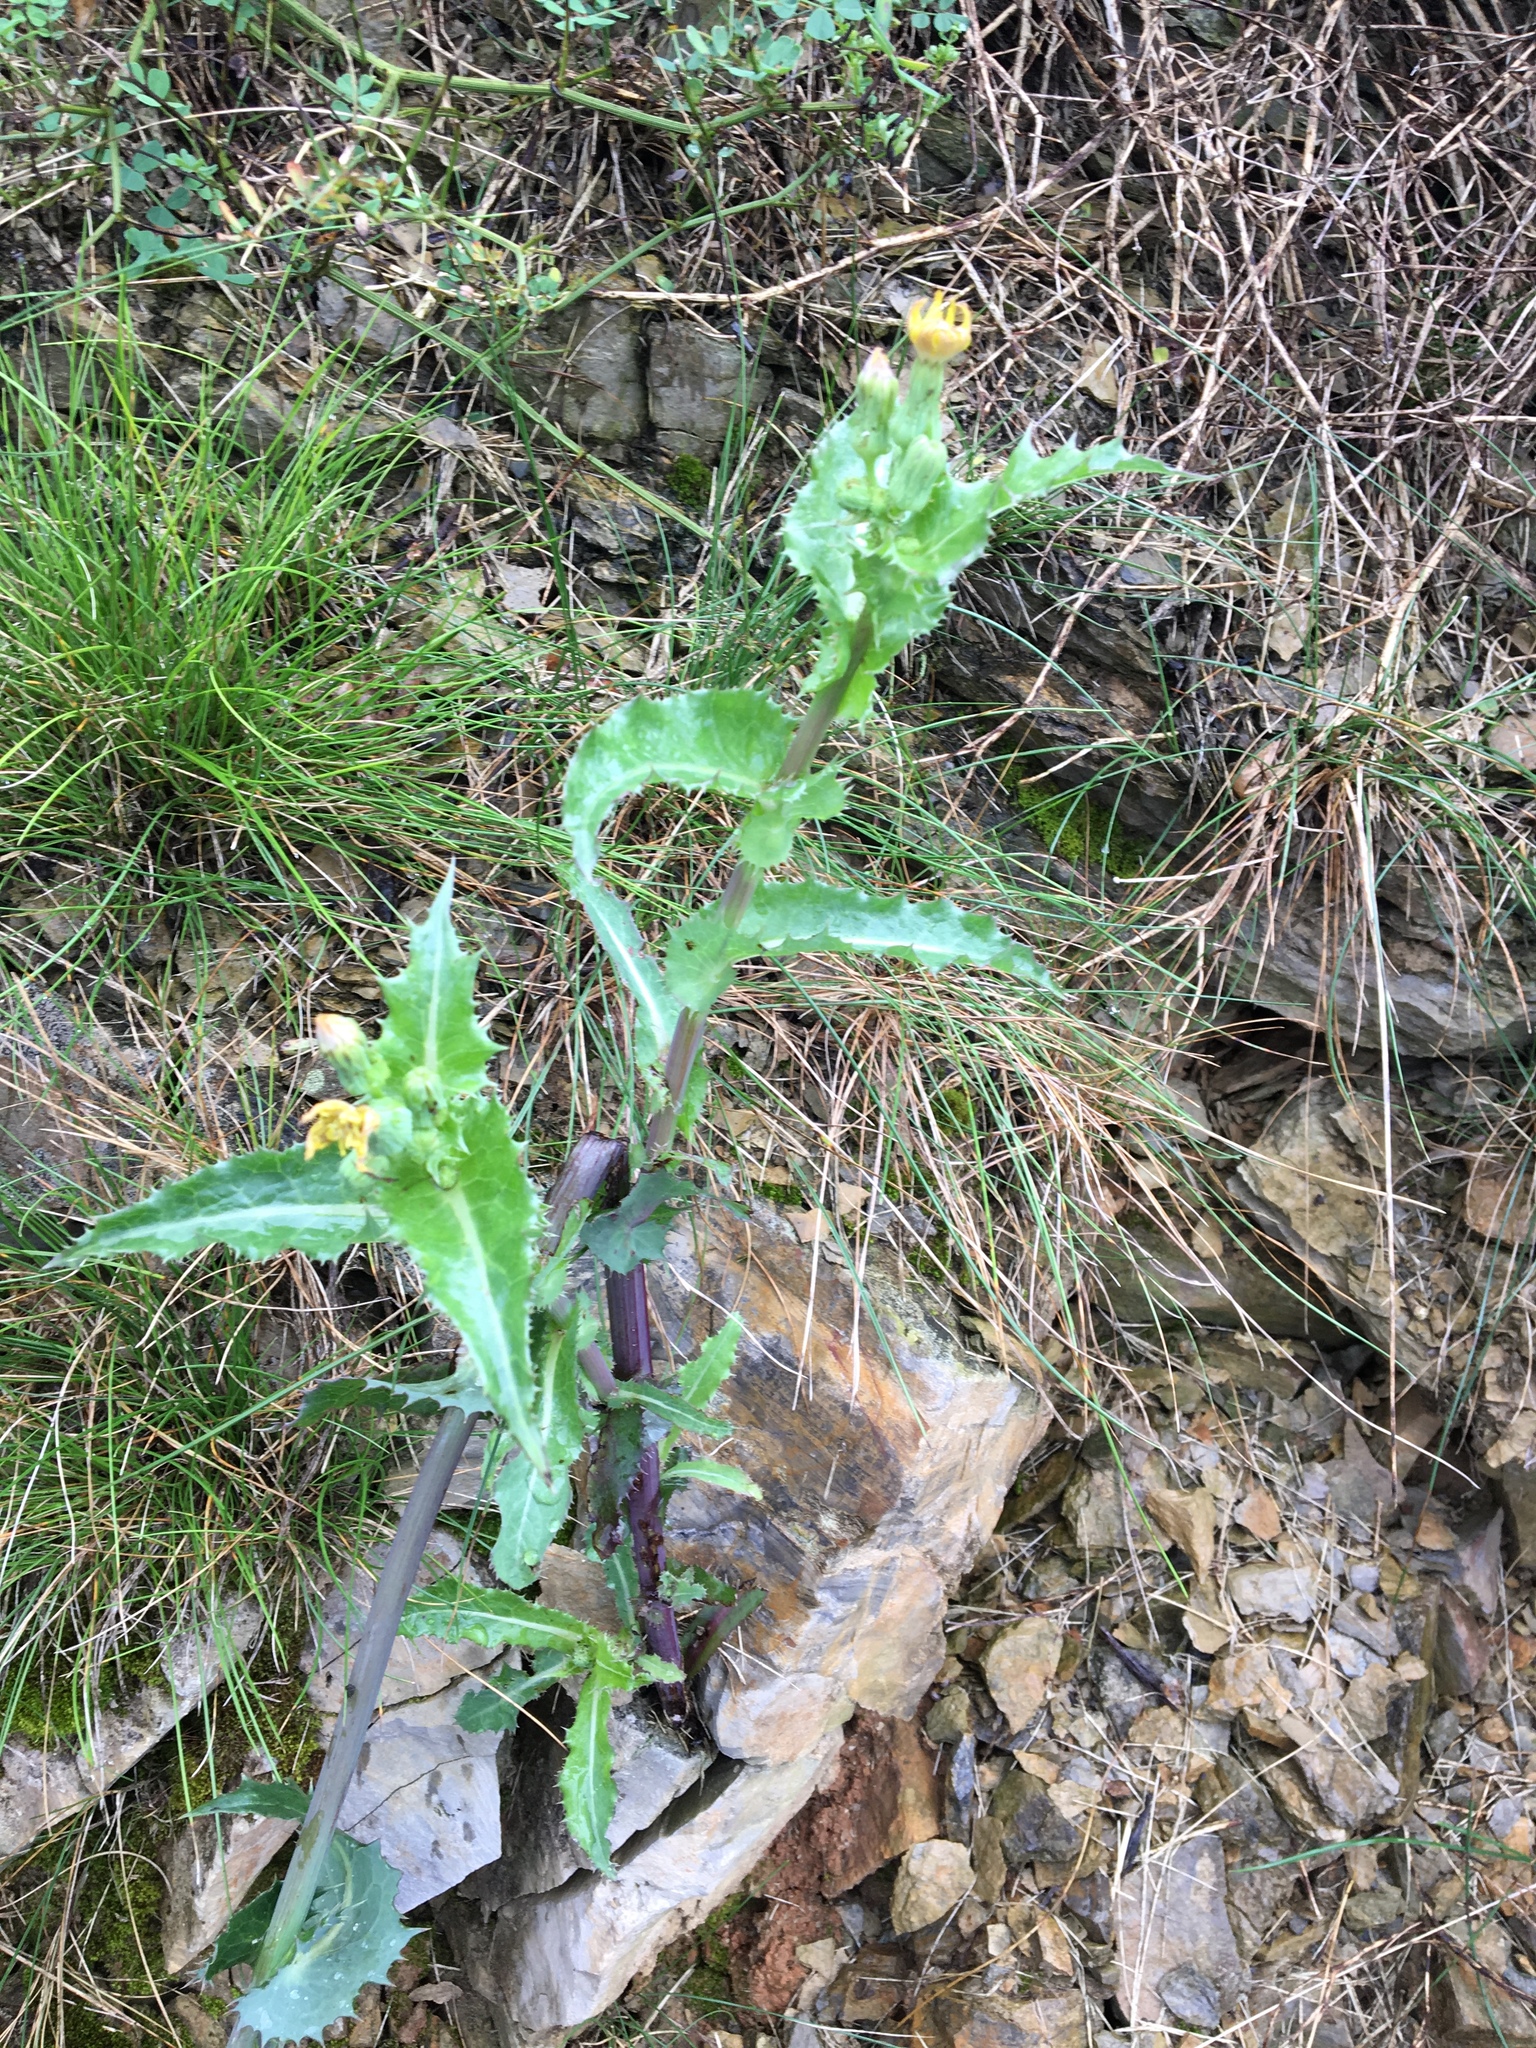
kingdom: Plantae
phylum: Tracheophyta
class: Magnoliopsida
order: Asterales
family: Asteraceae
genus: Sonchus
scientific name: Sonchus asper
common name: Prickly sow-thistle
